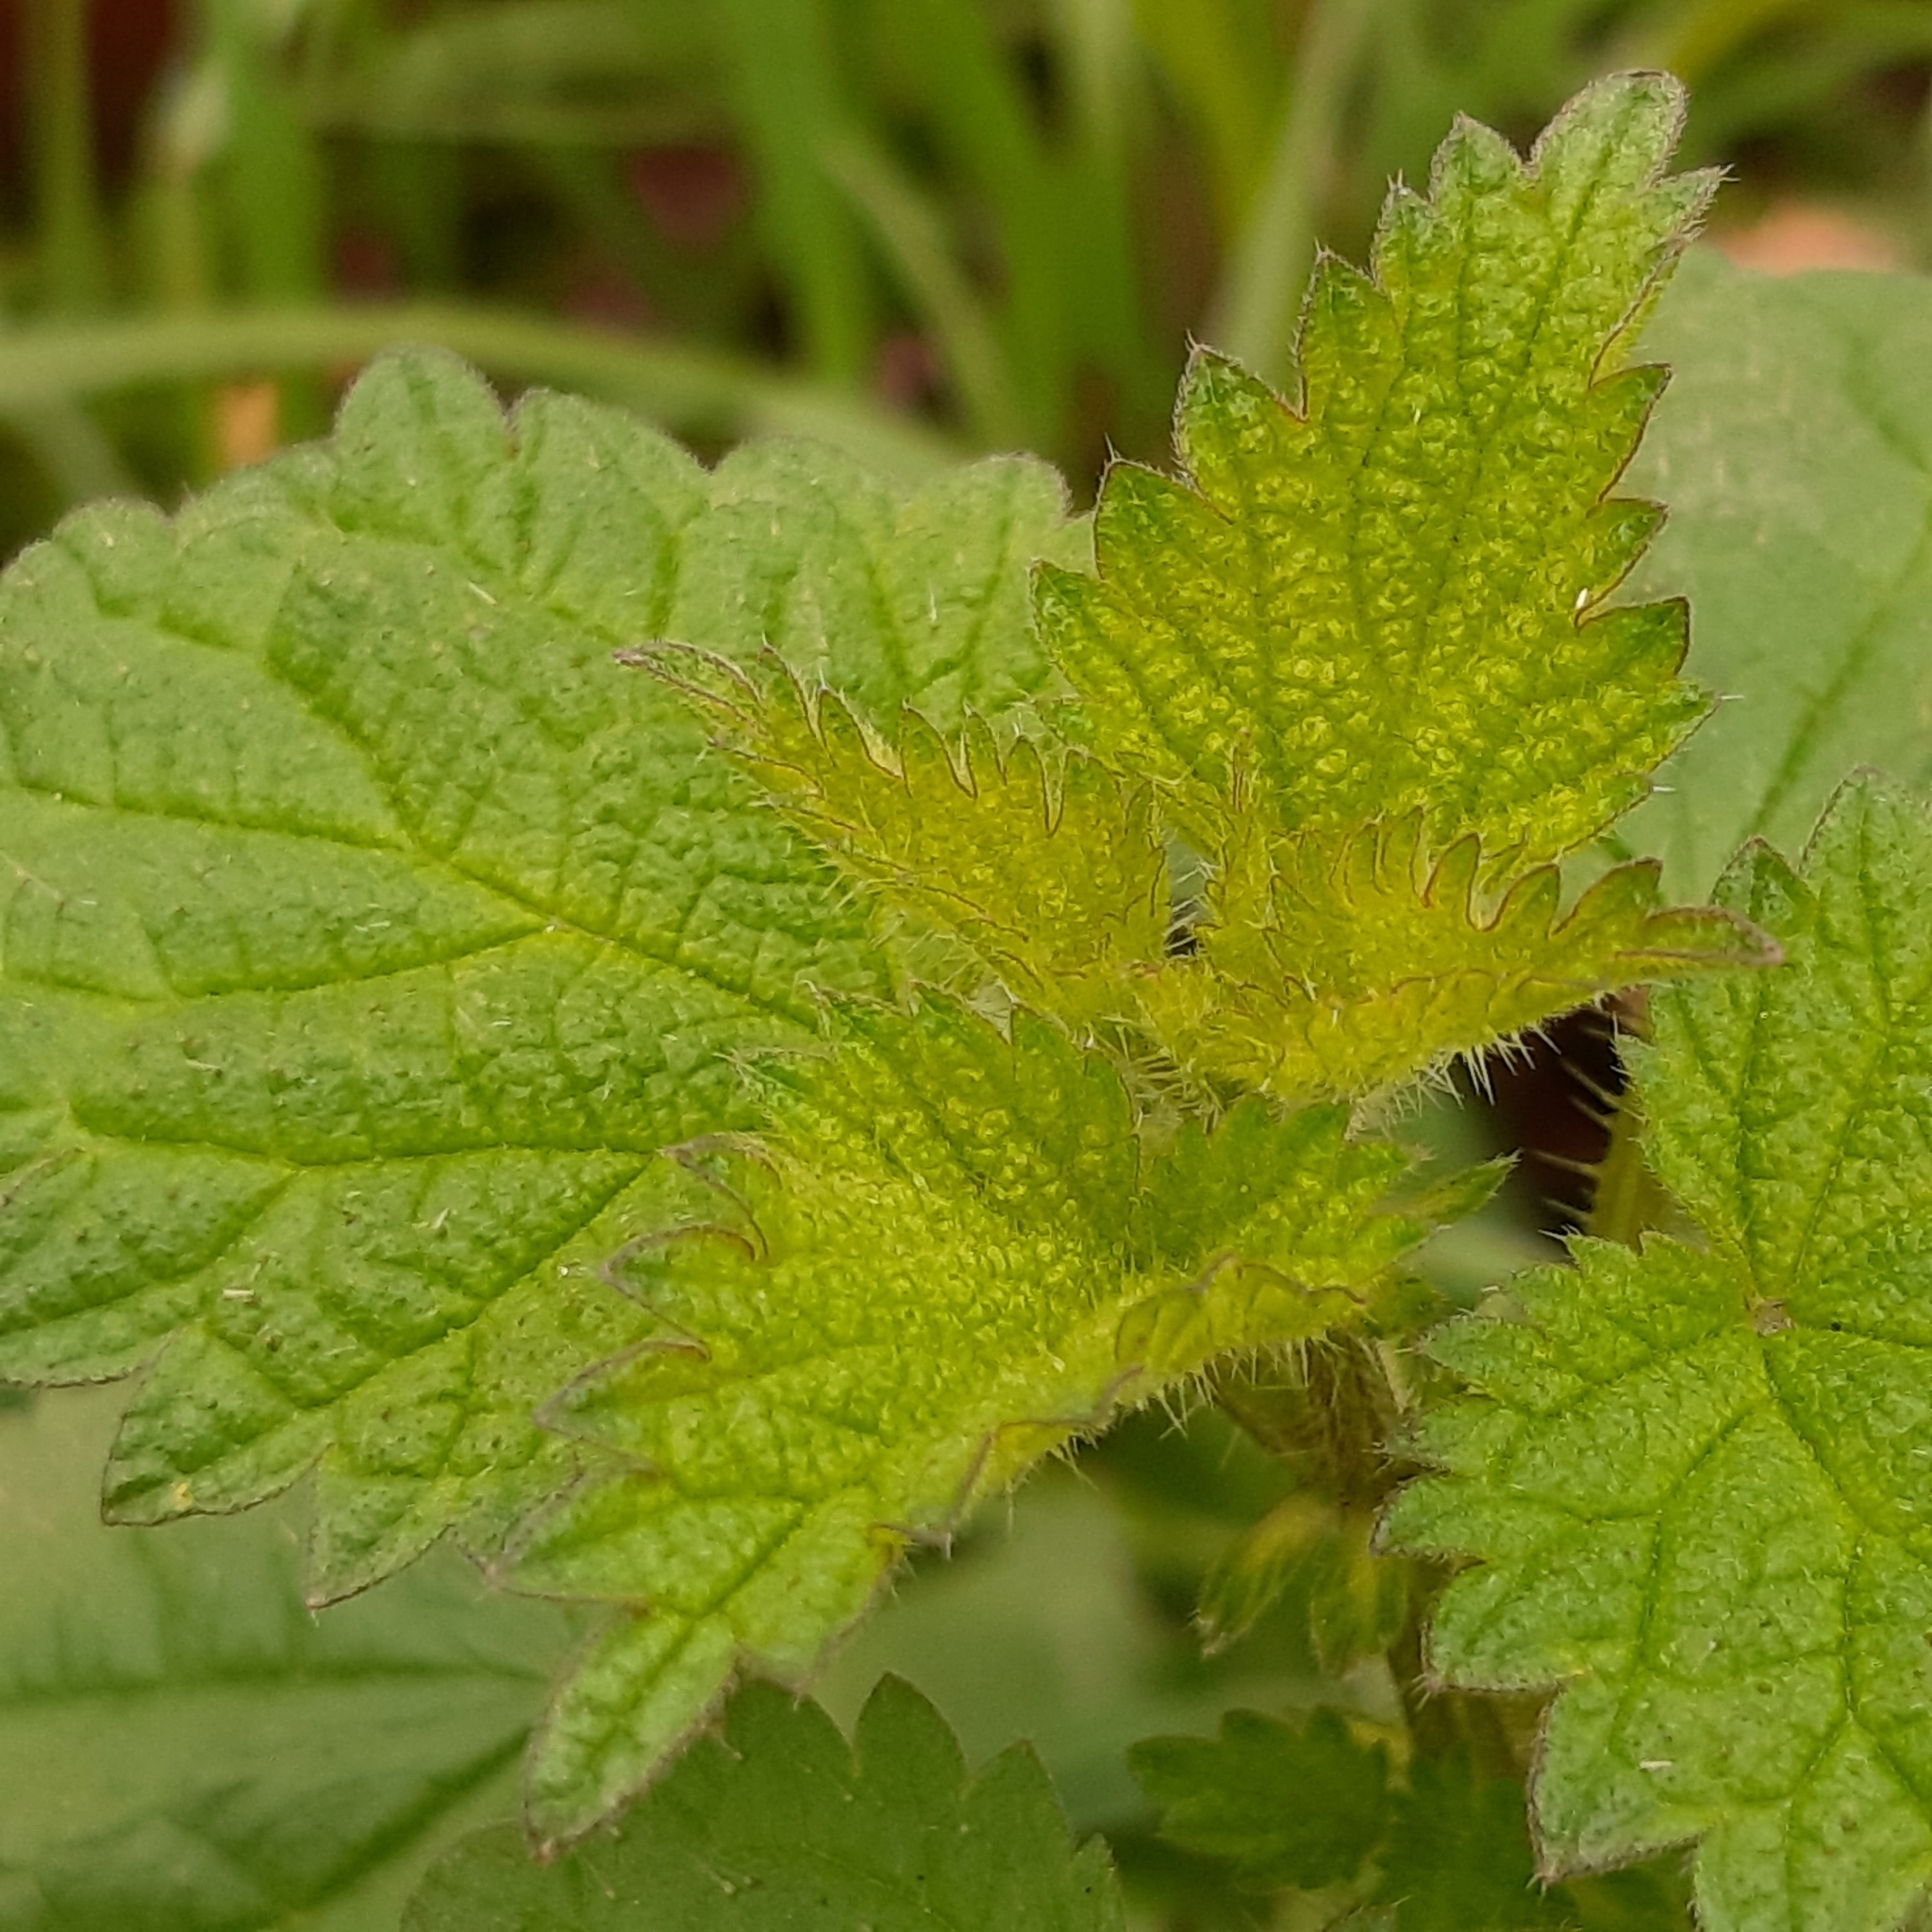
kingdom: Plantae
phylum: Tracheophyta
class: Magnoliopsida
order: Rosales
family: Urticaceae
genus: Urtica
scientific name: Urtica dioica
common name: Common nettle
